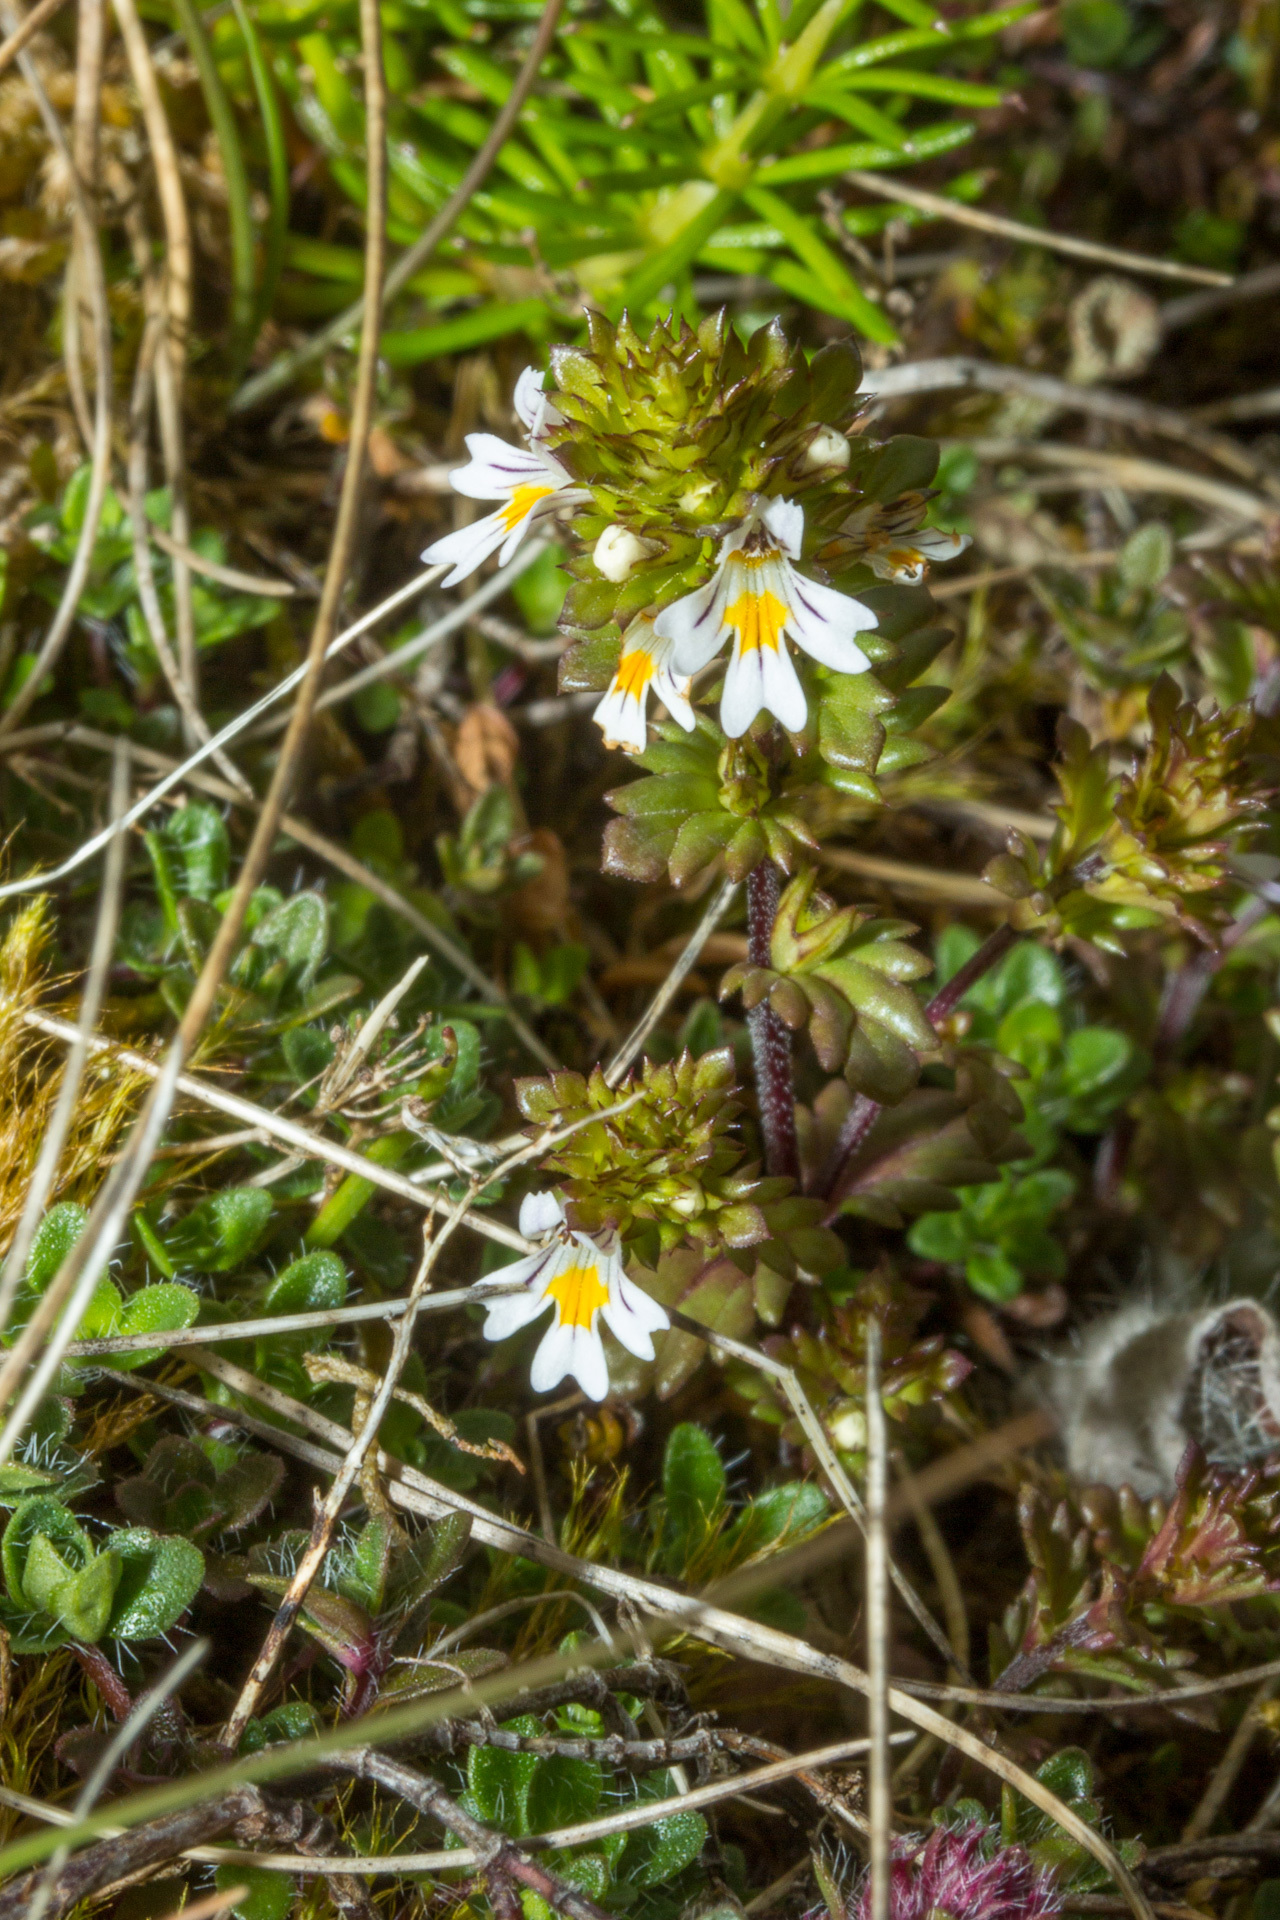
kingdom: Plantae
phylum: Tracheophyta
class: Magnoliopsida
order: Lamiales
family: Orobanchaceae
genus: Euphrasia
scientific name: Euphrasia
